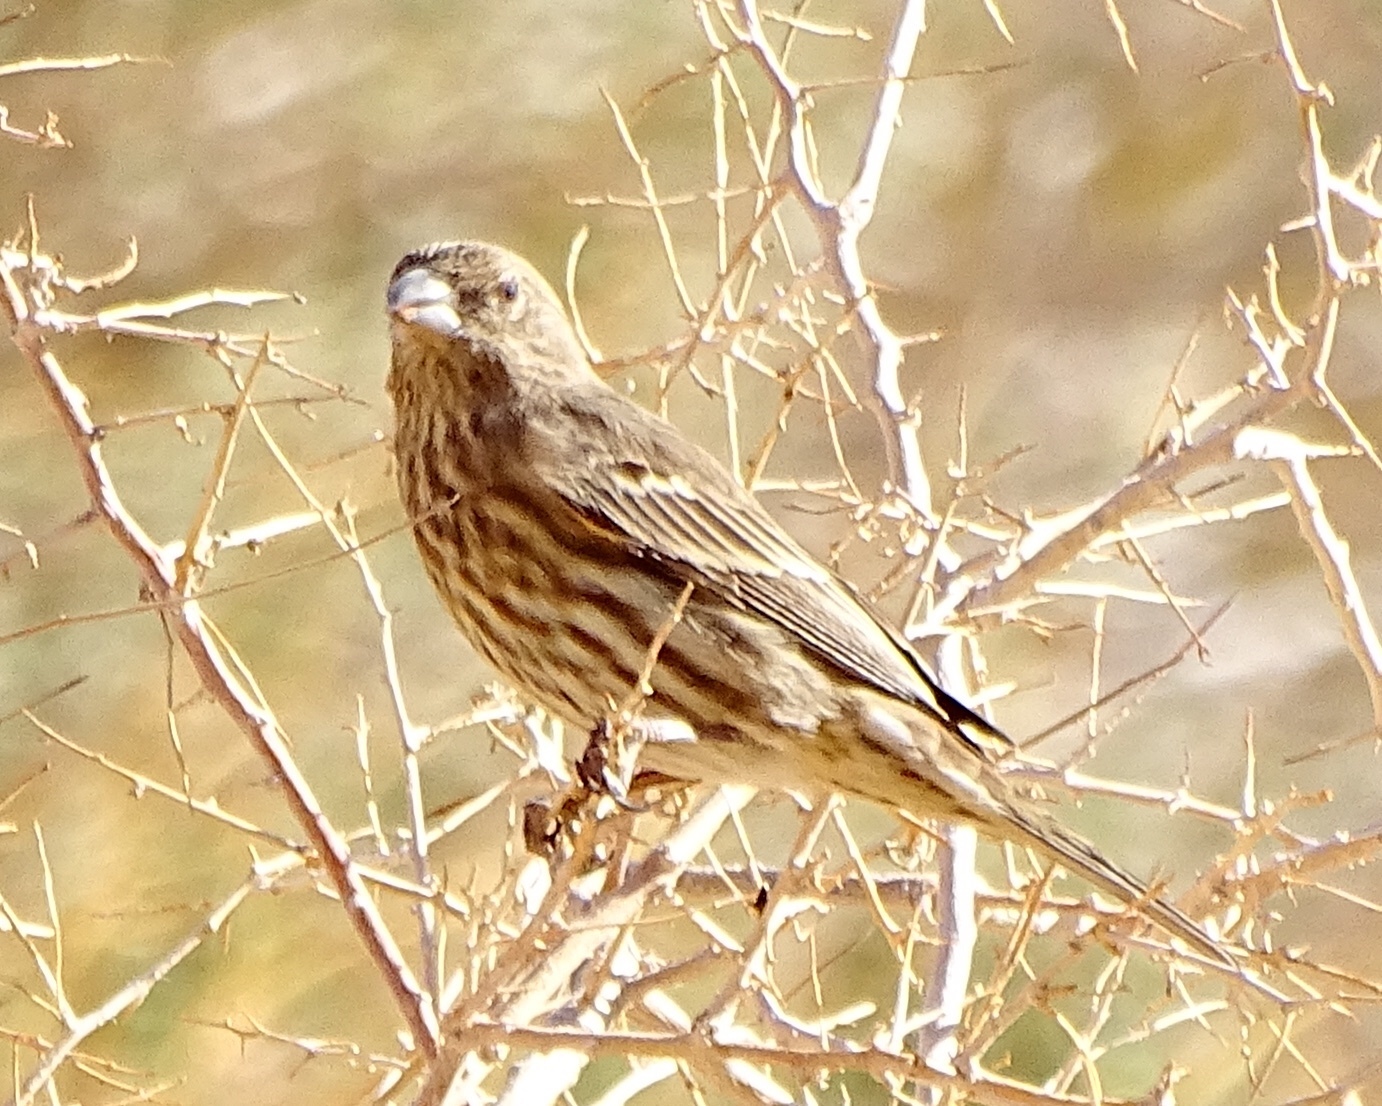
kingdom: Animalia
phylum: Chordata
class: Aves
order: Passeriformes
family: Fringillidae
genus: Haemorhous
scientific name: Haemorhous mexicanus
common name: House finch
